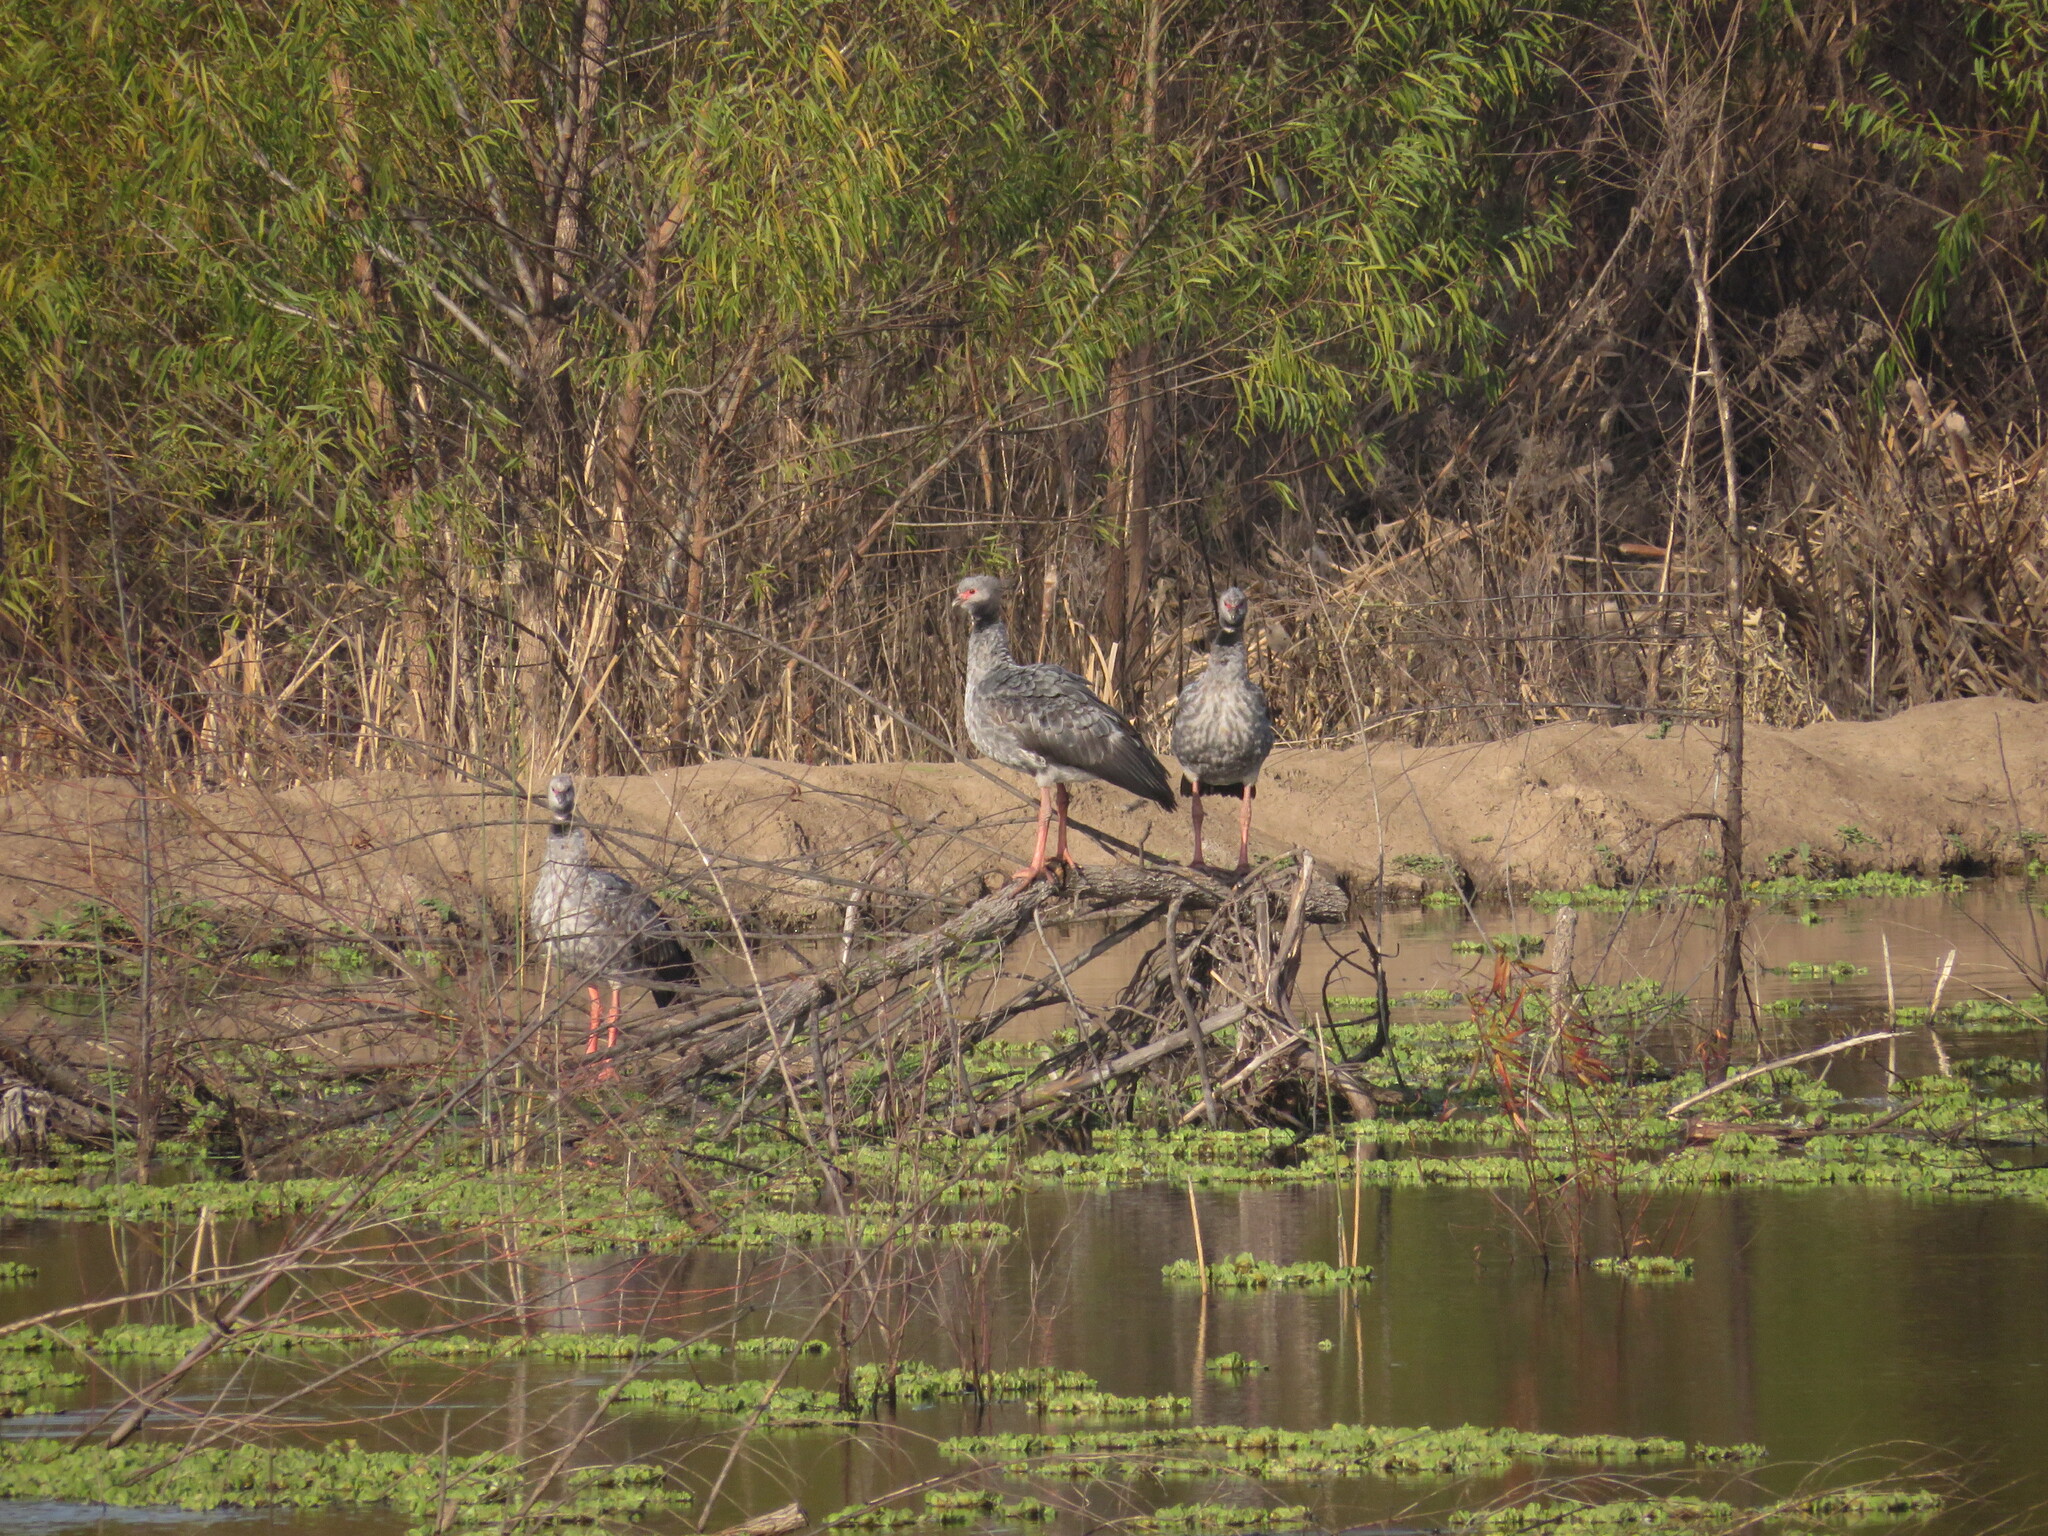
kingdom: Animalia
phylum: Chordata
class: Aves
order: Anseriformes
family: Anhimidae
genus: Chauna
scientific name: Chauna torquata
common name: Southern screamer
